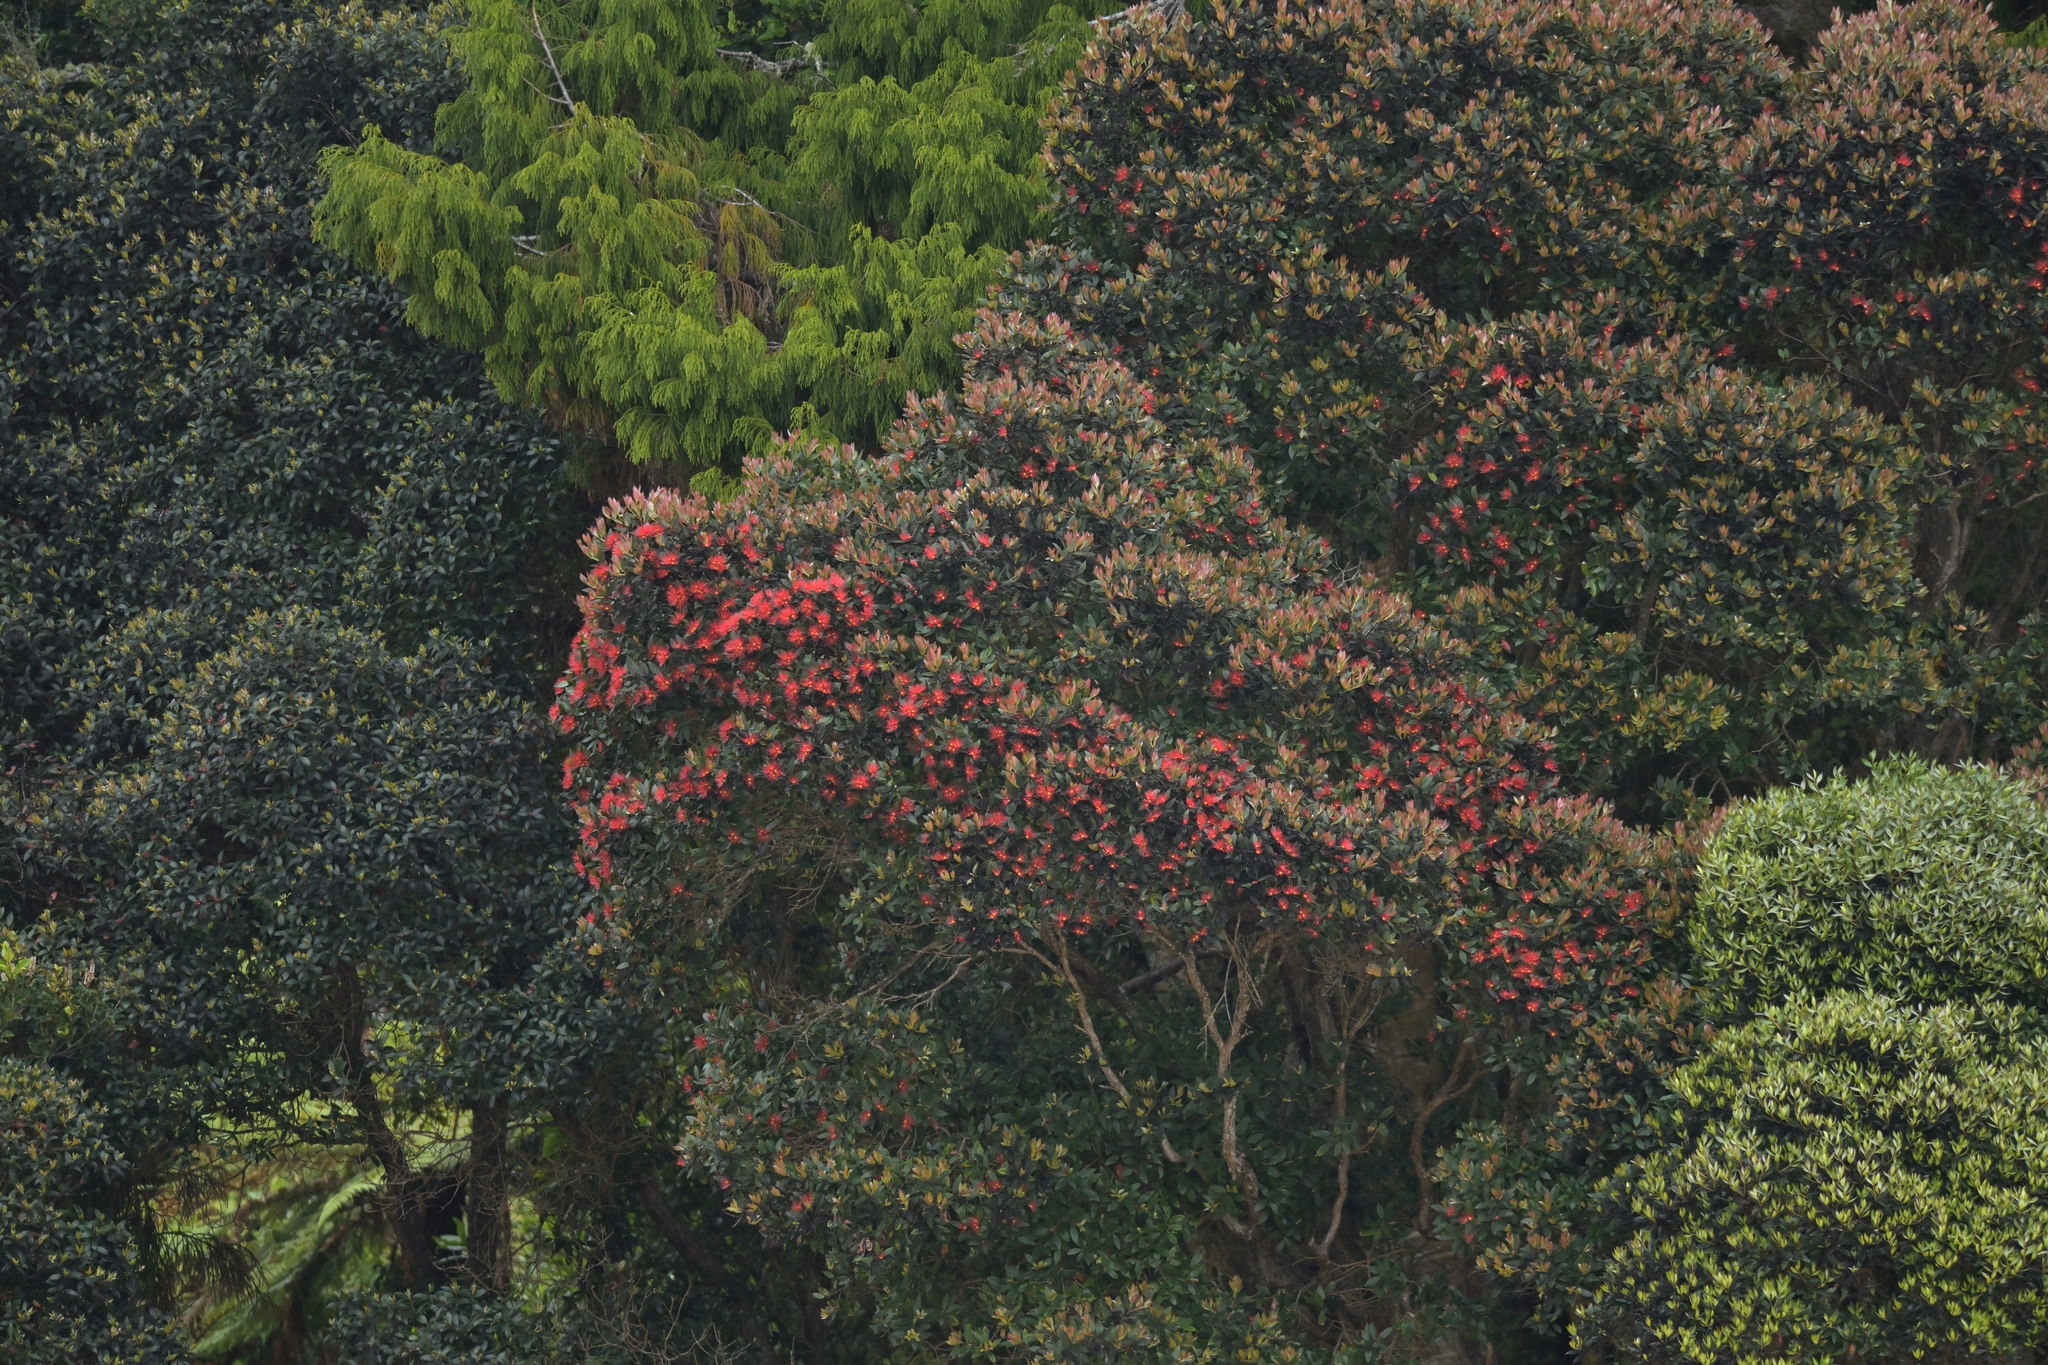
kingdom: Plantae
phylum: Tracheophyta
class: Magnoliopsida
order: Myrtales
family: Myrtaceae
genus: Metrosideros
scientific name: Metrosideros umbellata
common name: Southern rata
